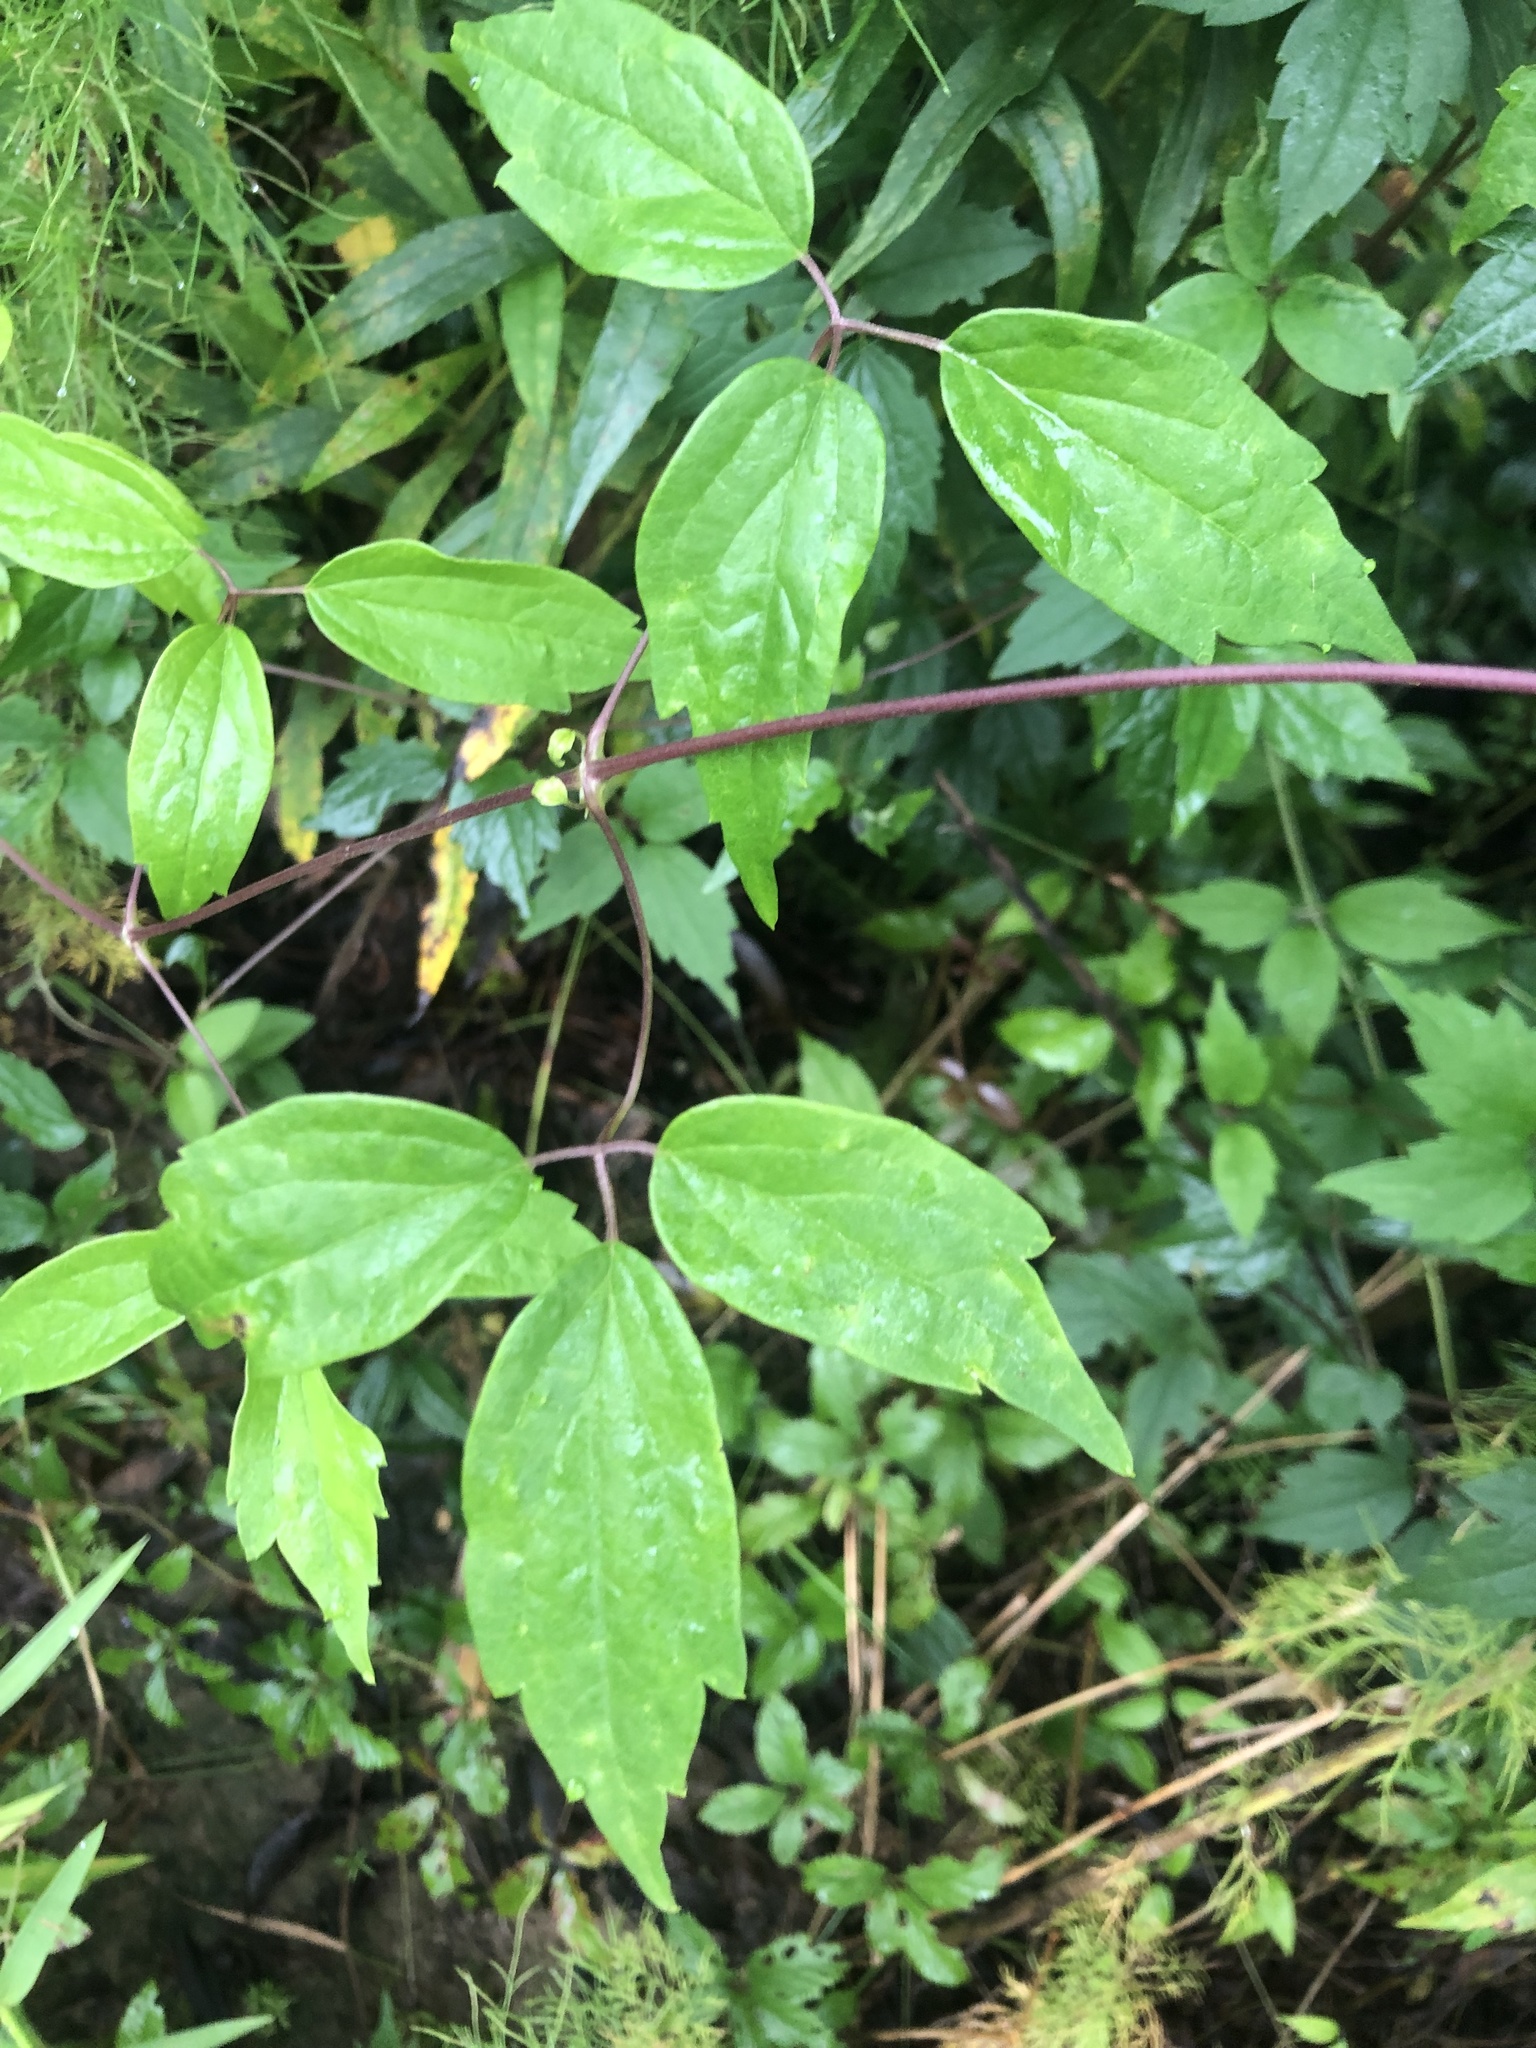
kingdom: Plantae
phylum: Tracheophyta
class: Magnoliopsida
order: Ranunculales
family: Ranunculaceae
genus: Clematis
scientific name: Clematis virginiana
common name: Virgin's-bower
